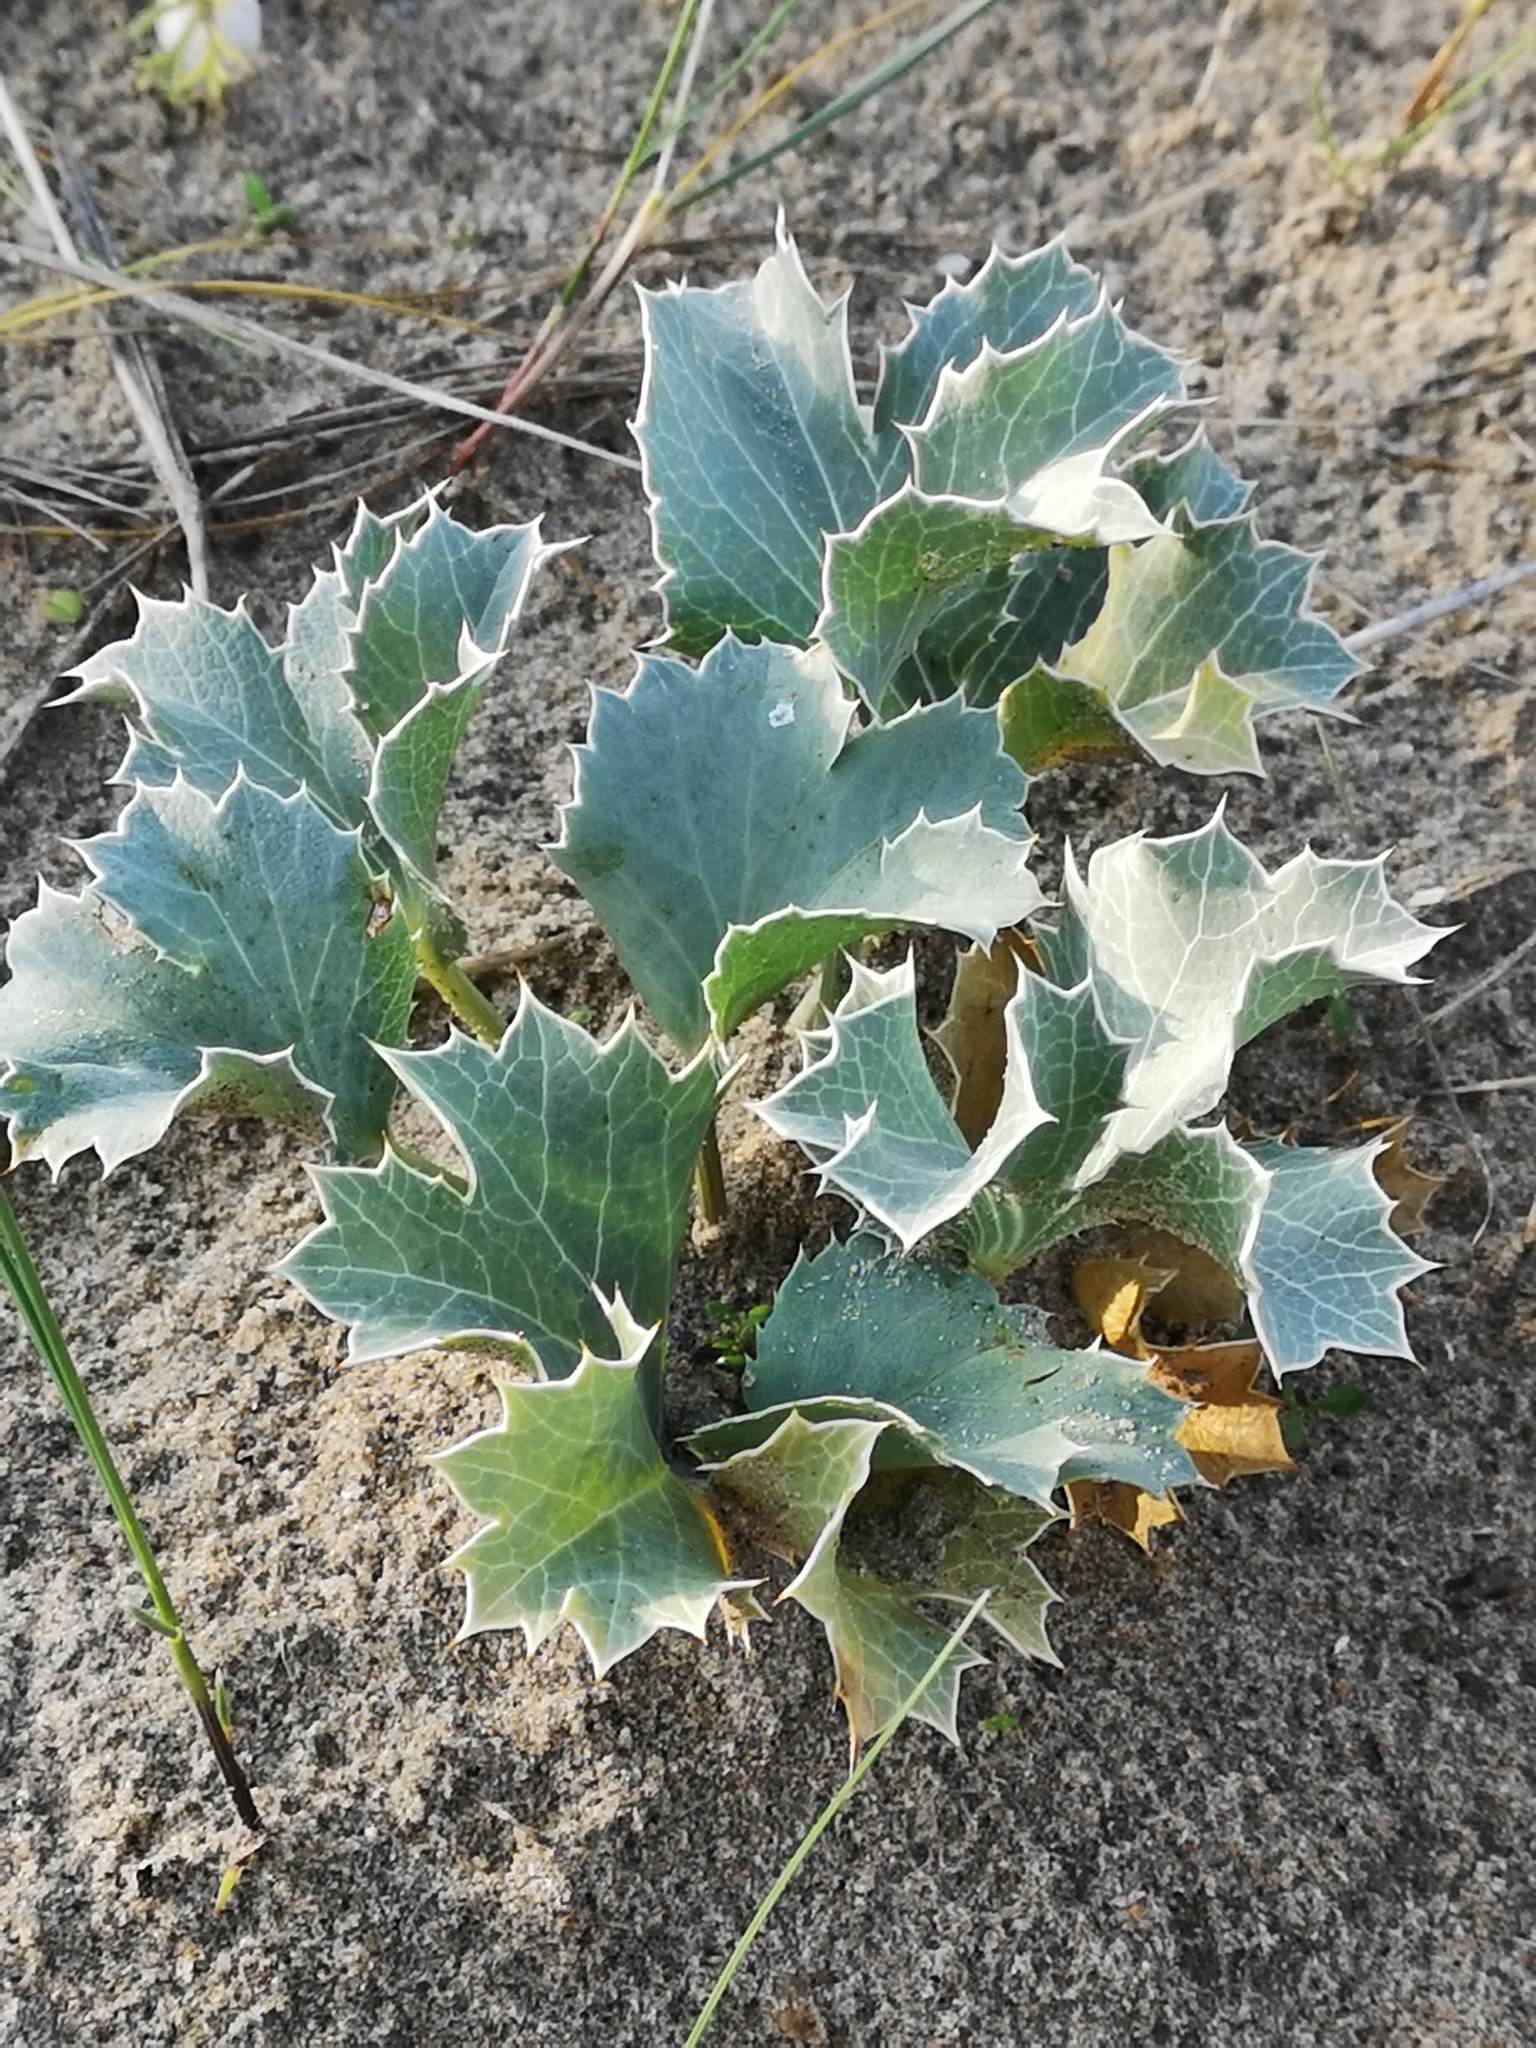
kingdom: Plantae
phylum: Tracheophyta
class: Magnoliopsida
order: Apiales
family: Apiaceae
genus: Eryngium
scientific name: Eryngium maritimum
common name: Sea-holly
